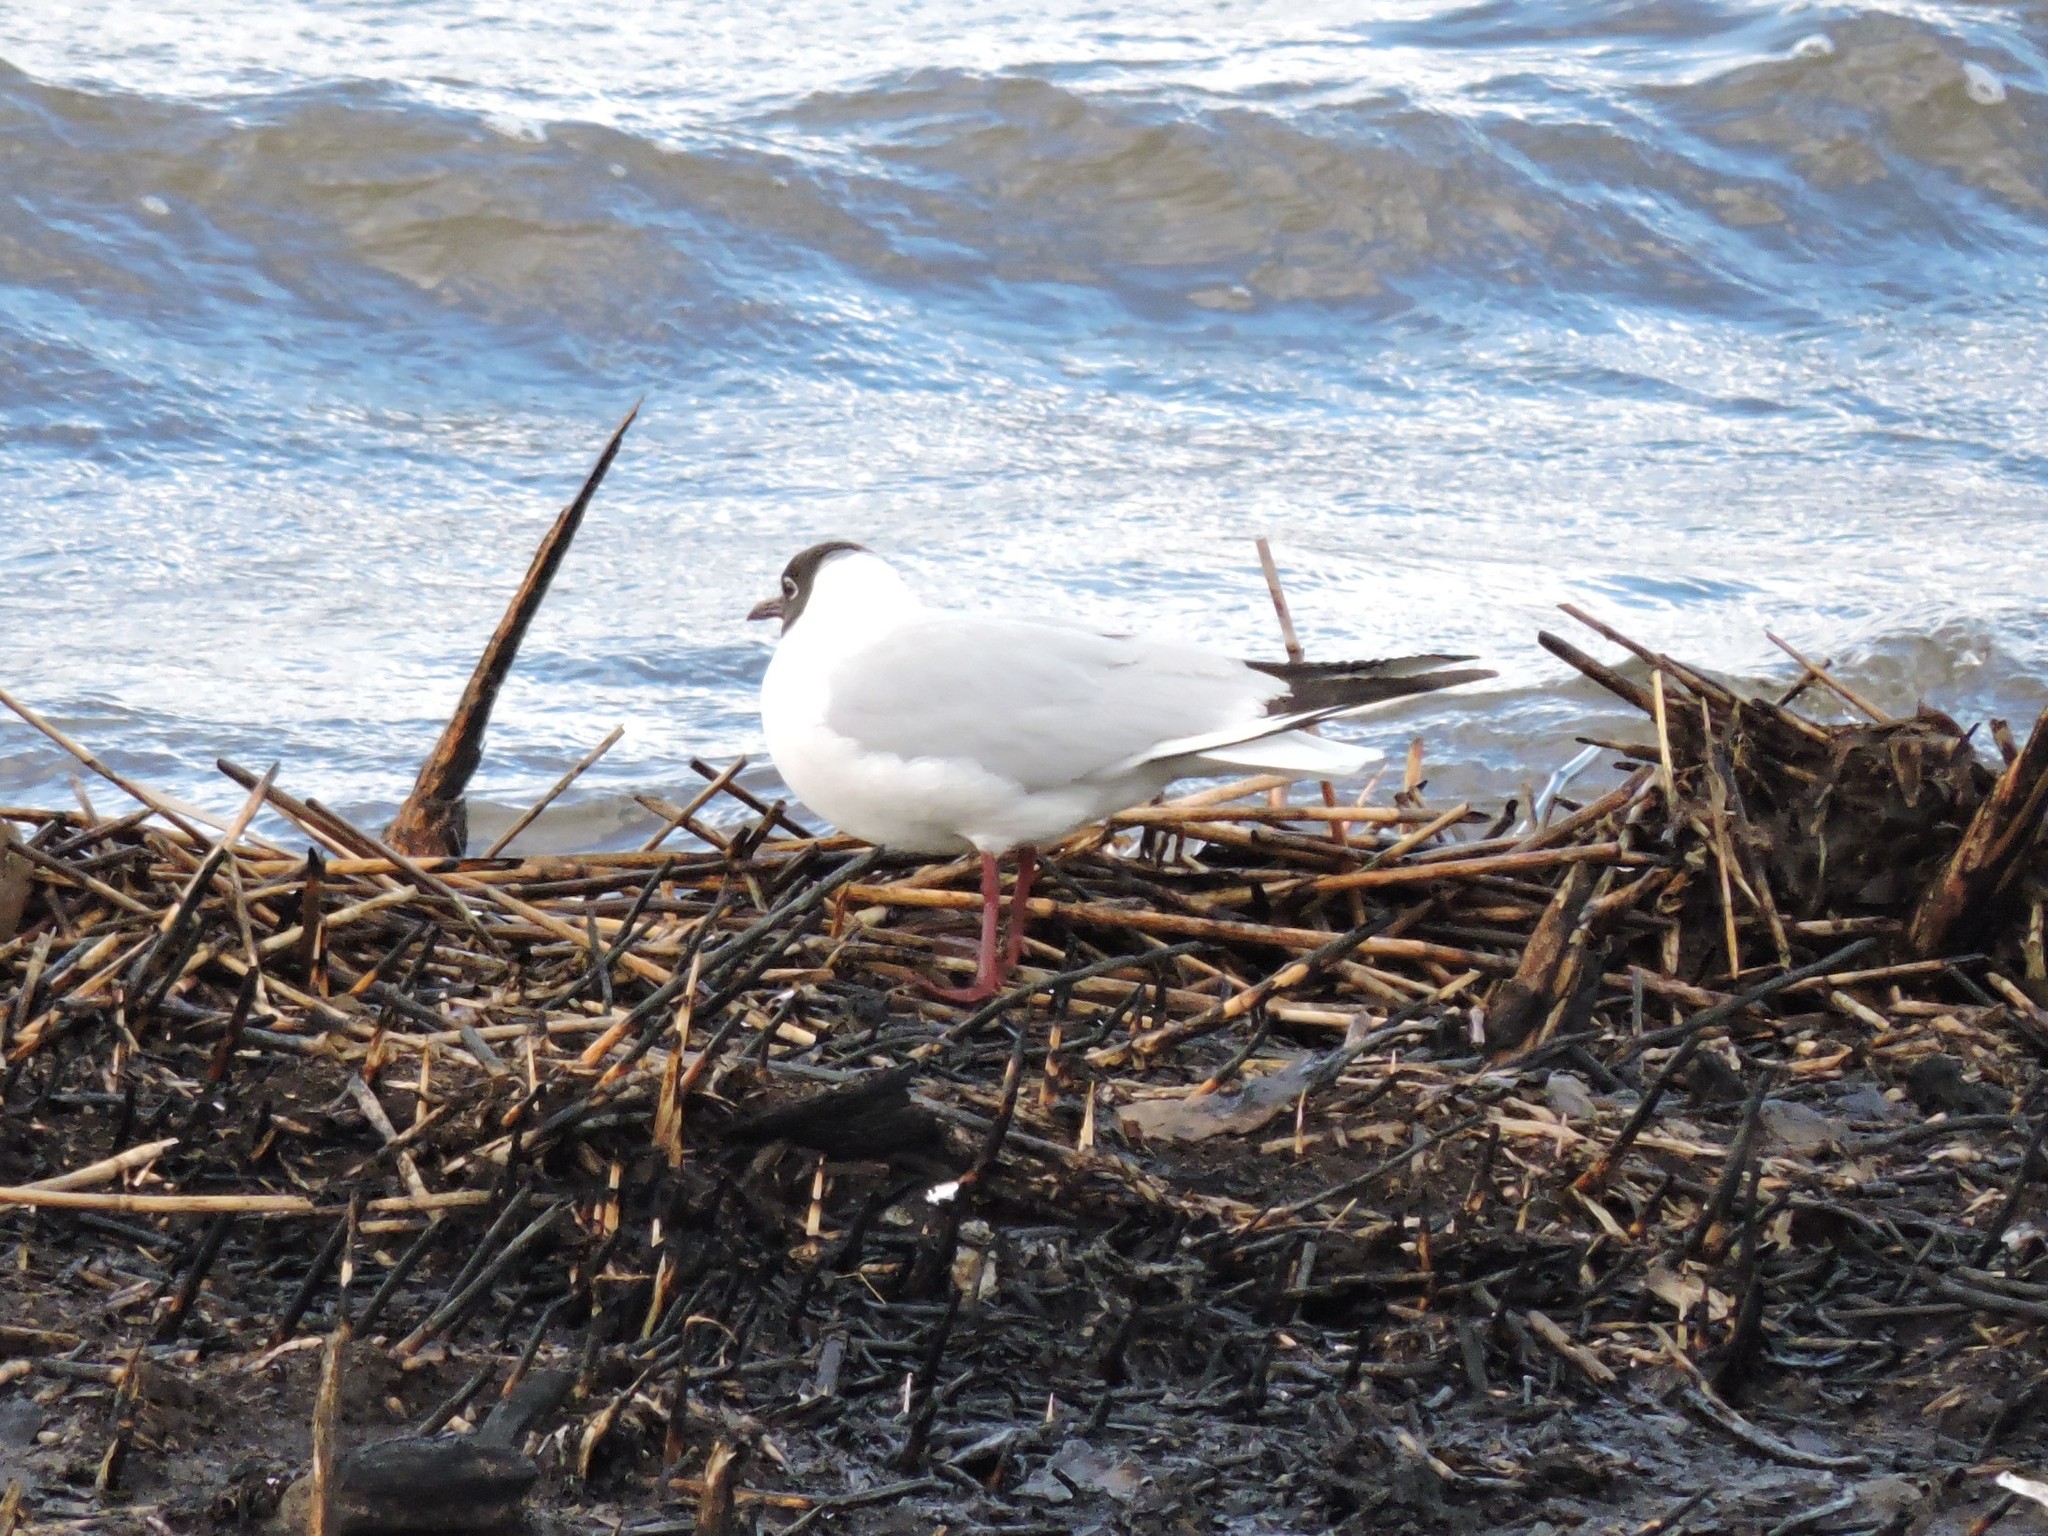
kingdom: Animalia
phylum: Chordata
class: Aves
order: Charadriiformes
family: Laridae
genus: Chroicocephalus
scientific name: Chroicocephalus ridibundus
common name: Black-headed gull
